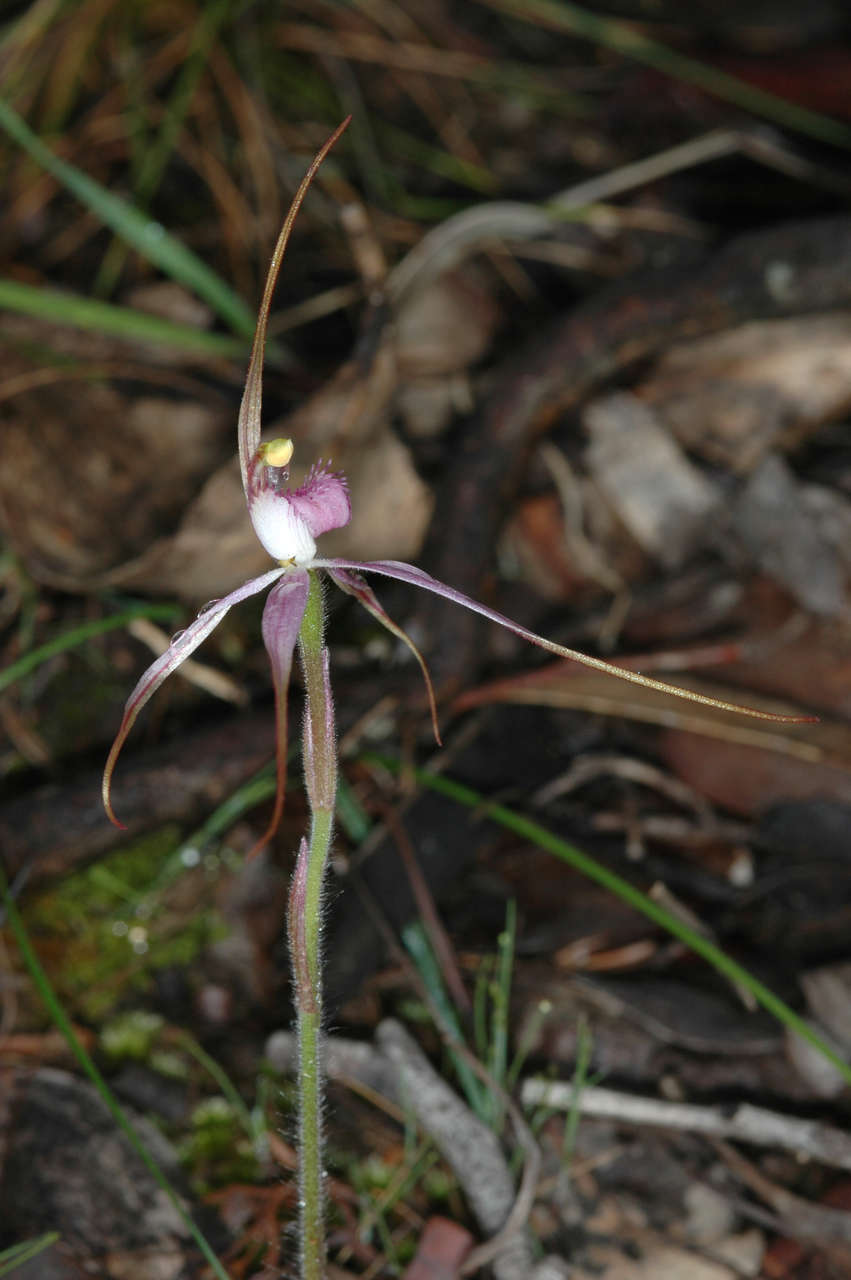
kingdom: Plantae
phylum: Tracheophyta
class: Liliopsida
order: Asparagales
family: Orchidaceae
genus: Caladenia
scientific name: Caladenia rosella
